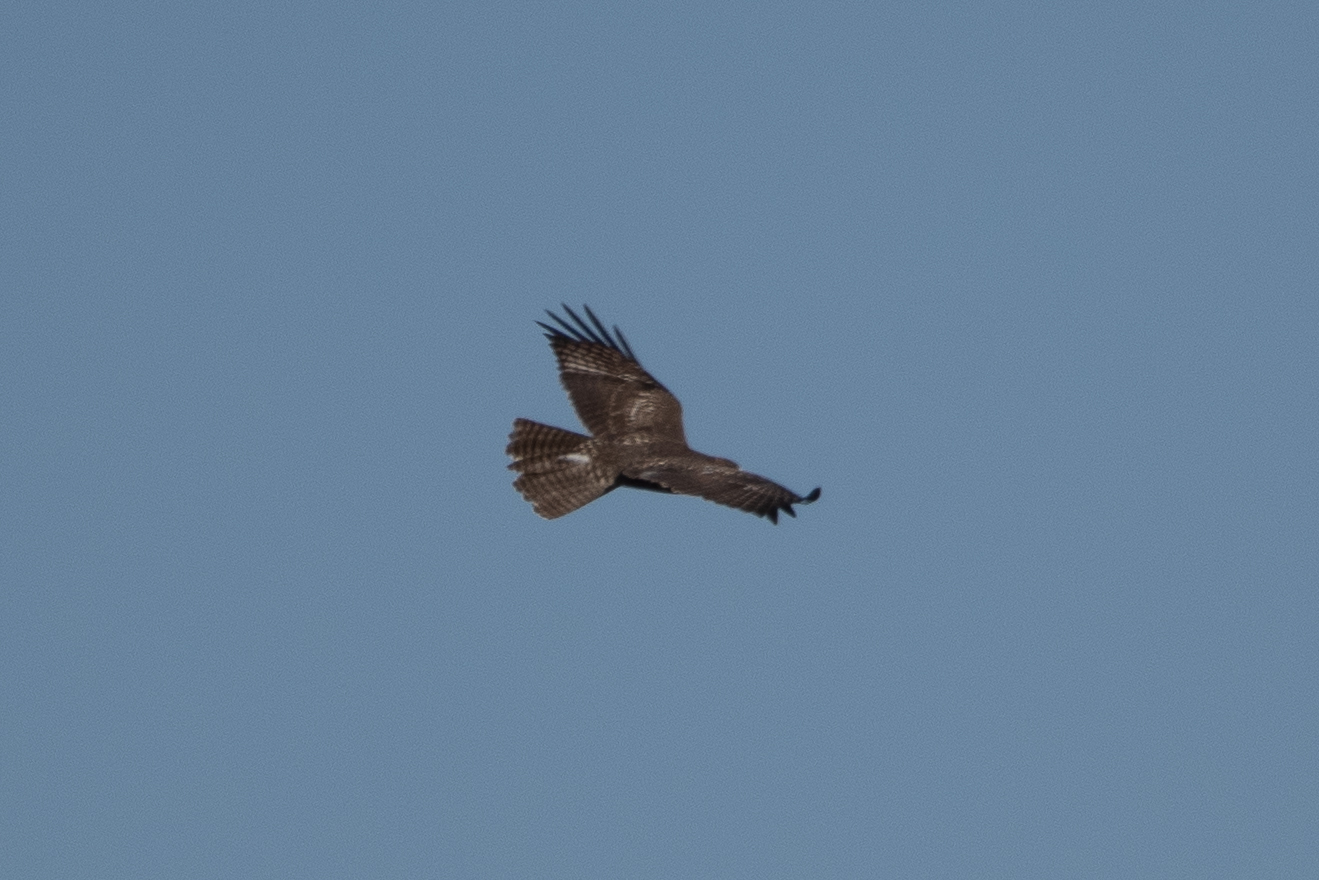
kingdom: Animalia
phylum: Chordata
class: Aves
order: Accipitriformes
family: Accipitridae
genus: Buteo
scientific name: Buteo jamaicensis
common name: Red-tailed hawk
